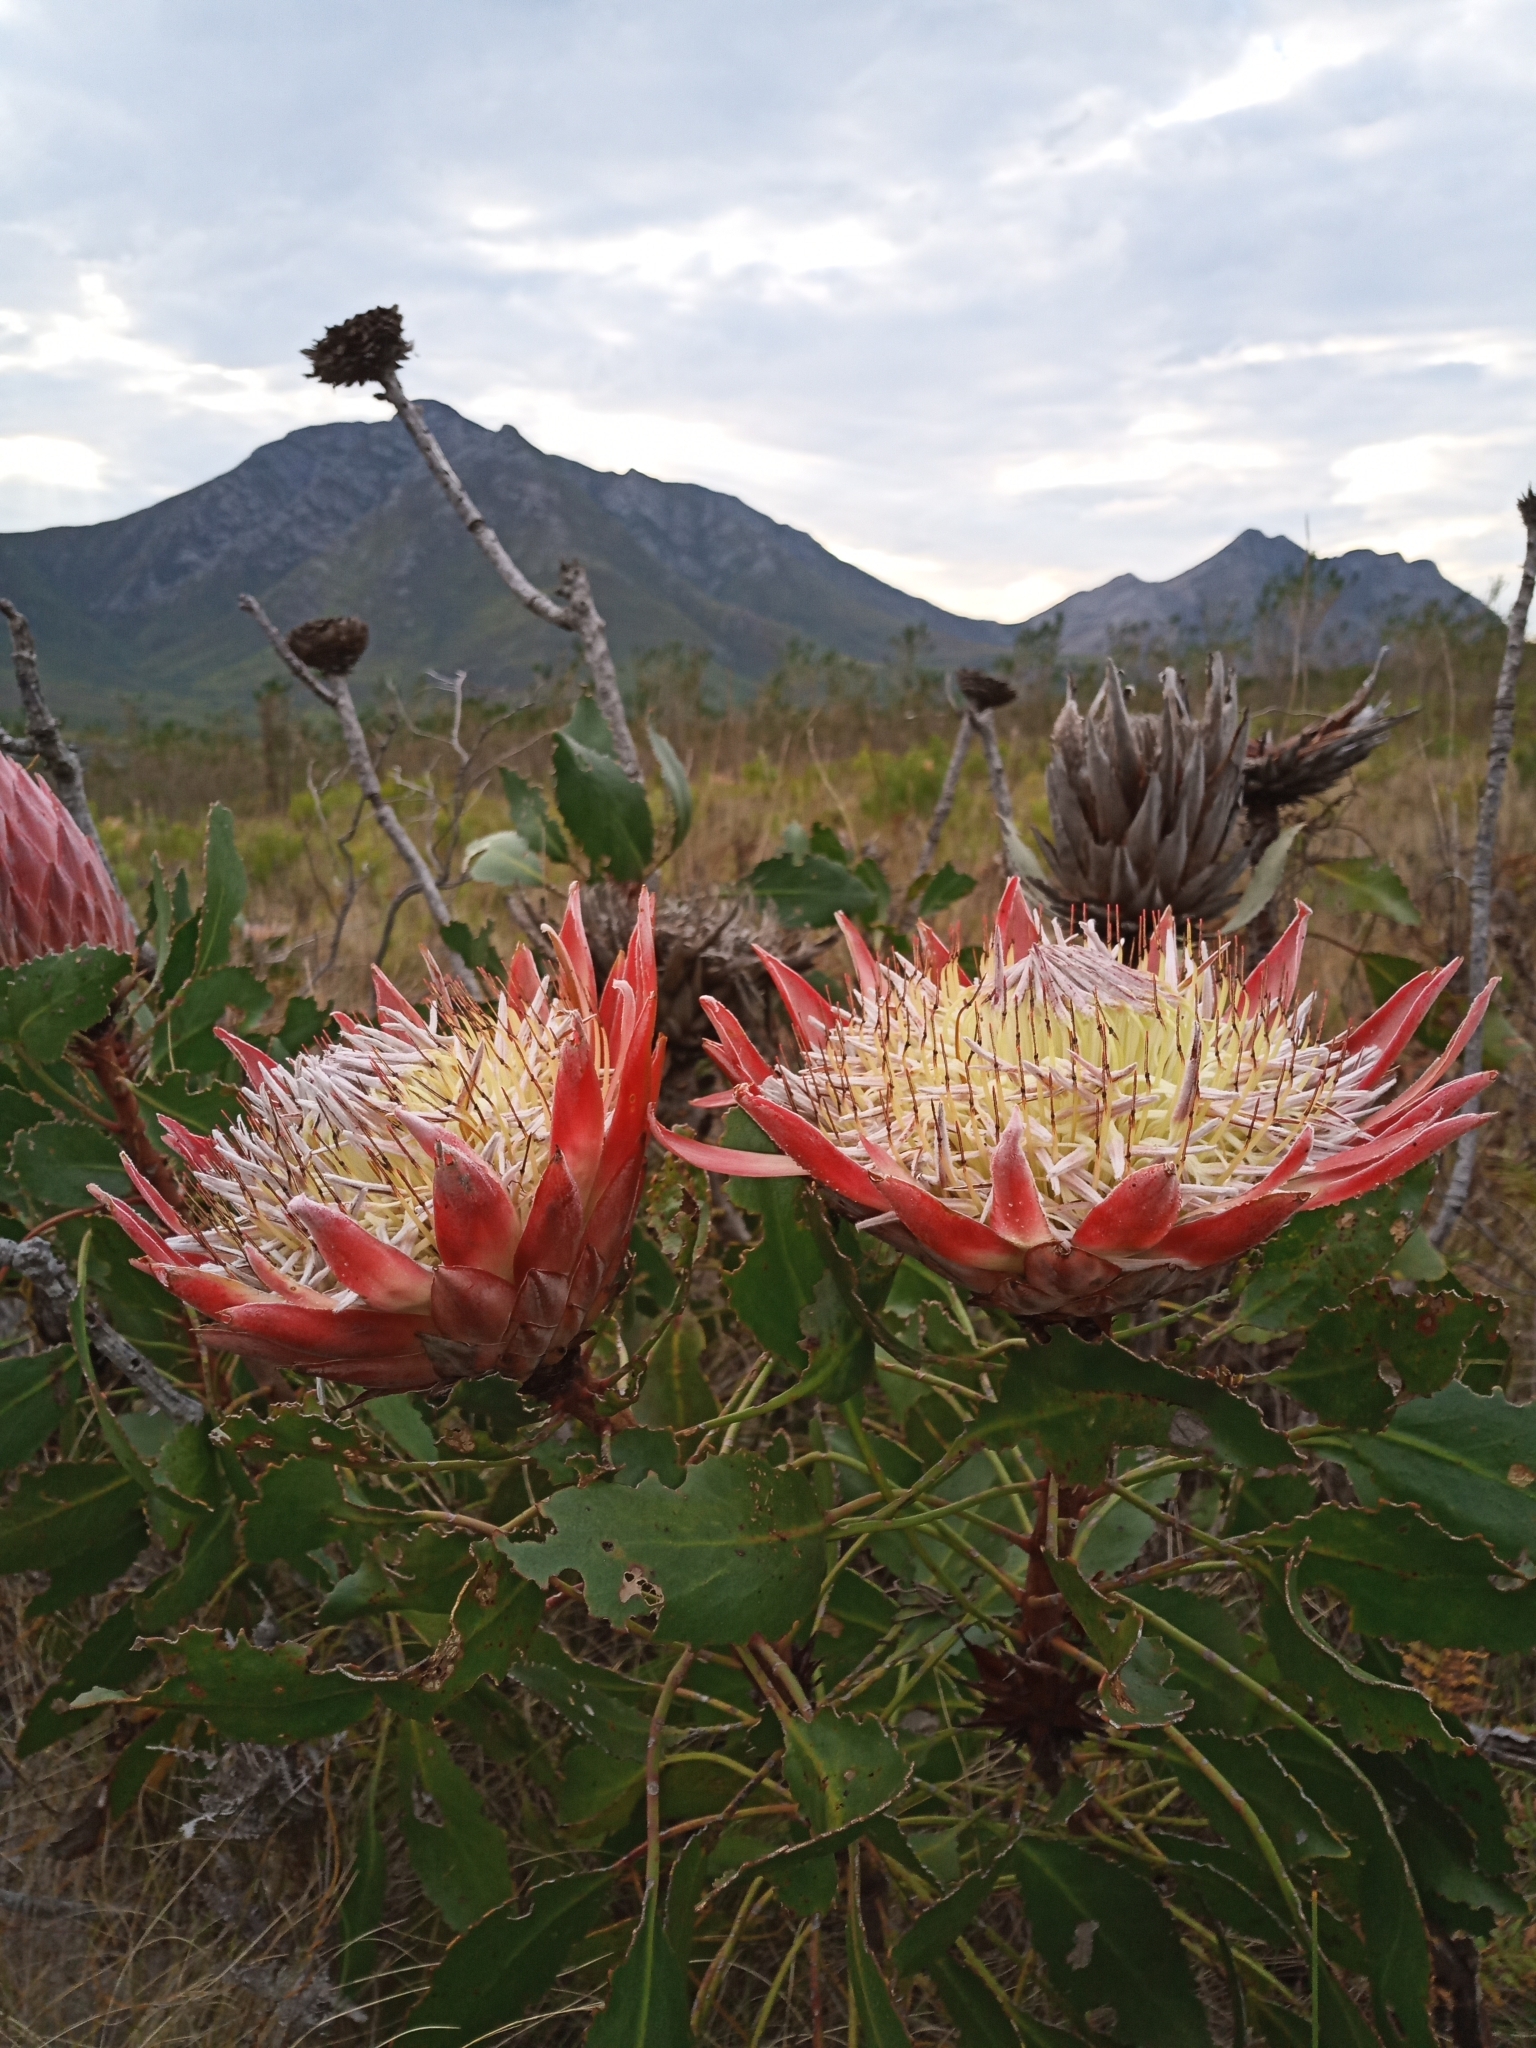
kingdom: Plantae
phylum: Tracheophyta
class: Magnoliopsida
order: Proteales
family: Proteaceae
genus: Protea
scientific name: Protea cynaroides
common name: King protea
